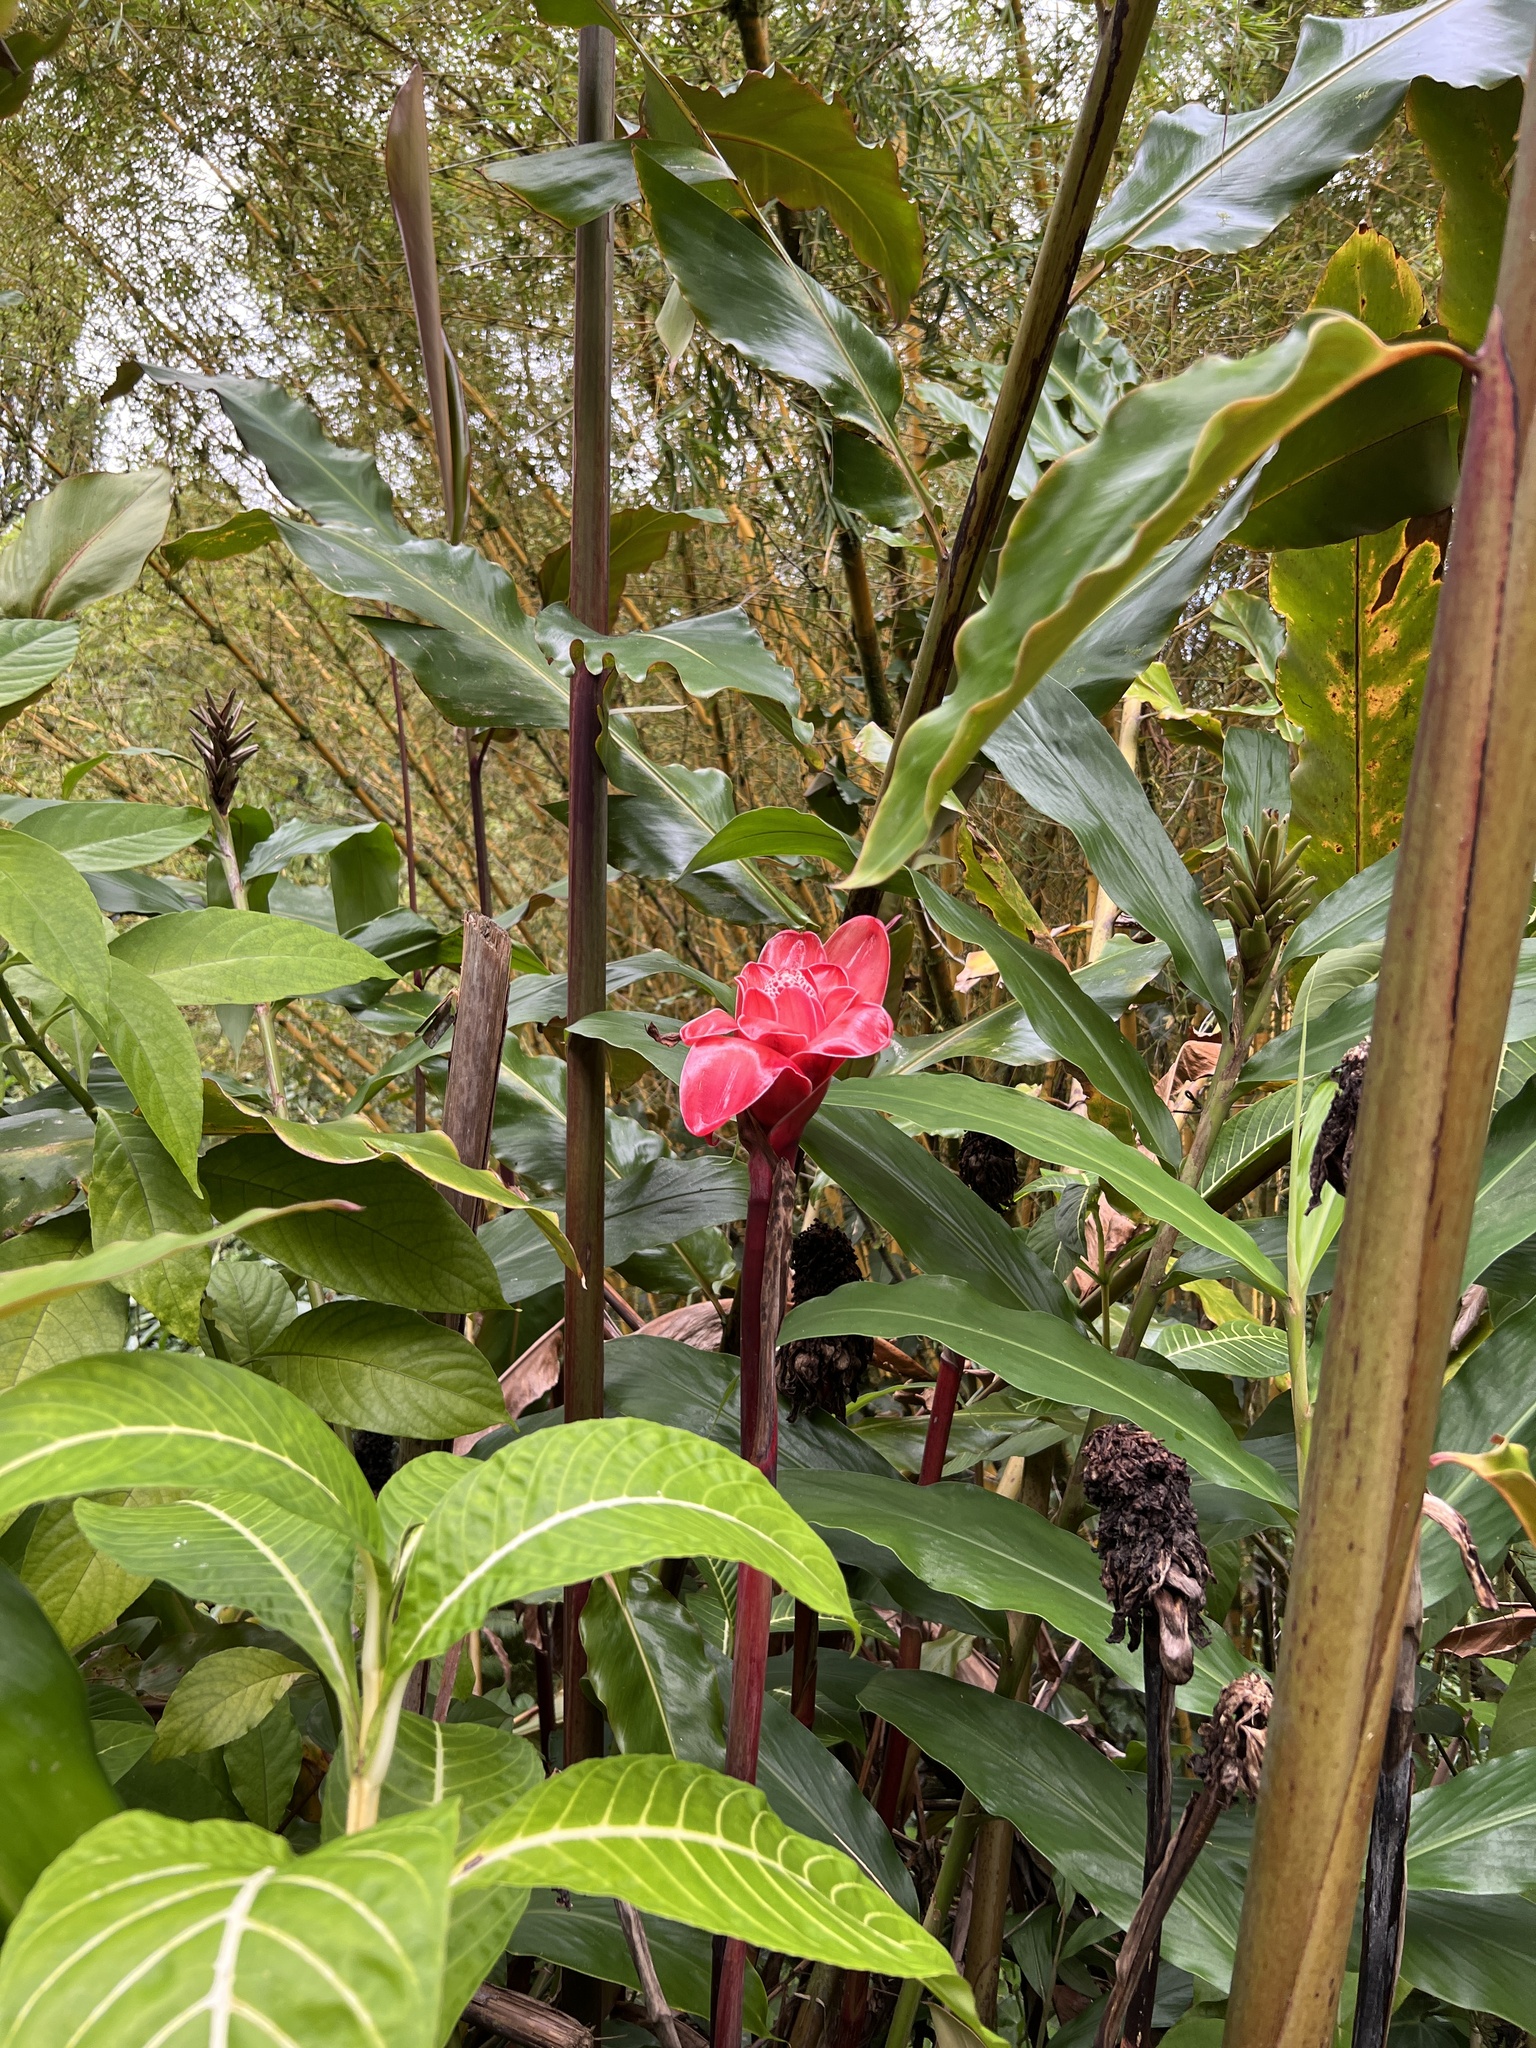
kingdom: Plantae
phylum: Tracheophyta
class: Liliopsida
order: Zingiberales
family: Zingiberaceae
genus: Etlingera
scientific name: Etlingera elatior
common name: Philippine waxflower
